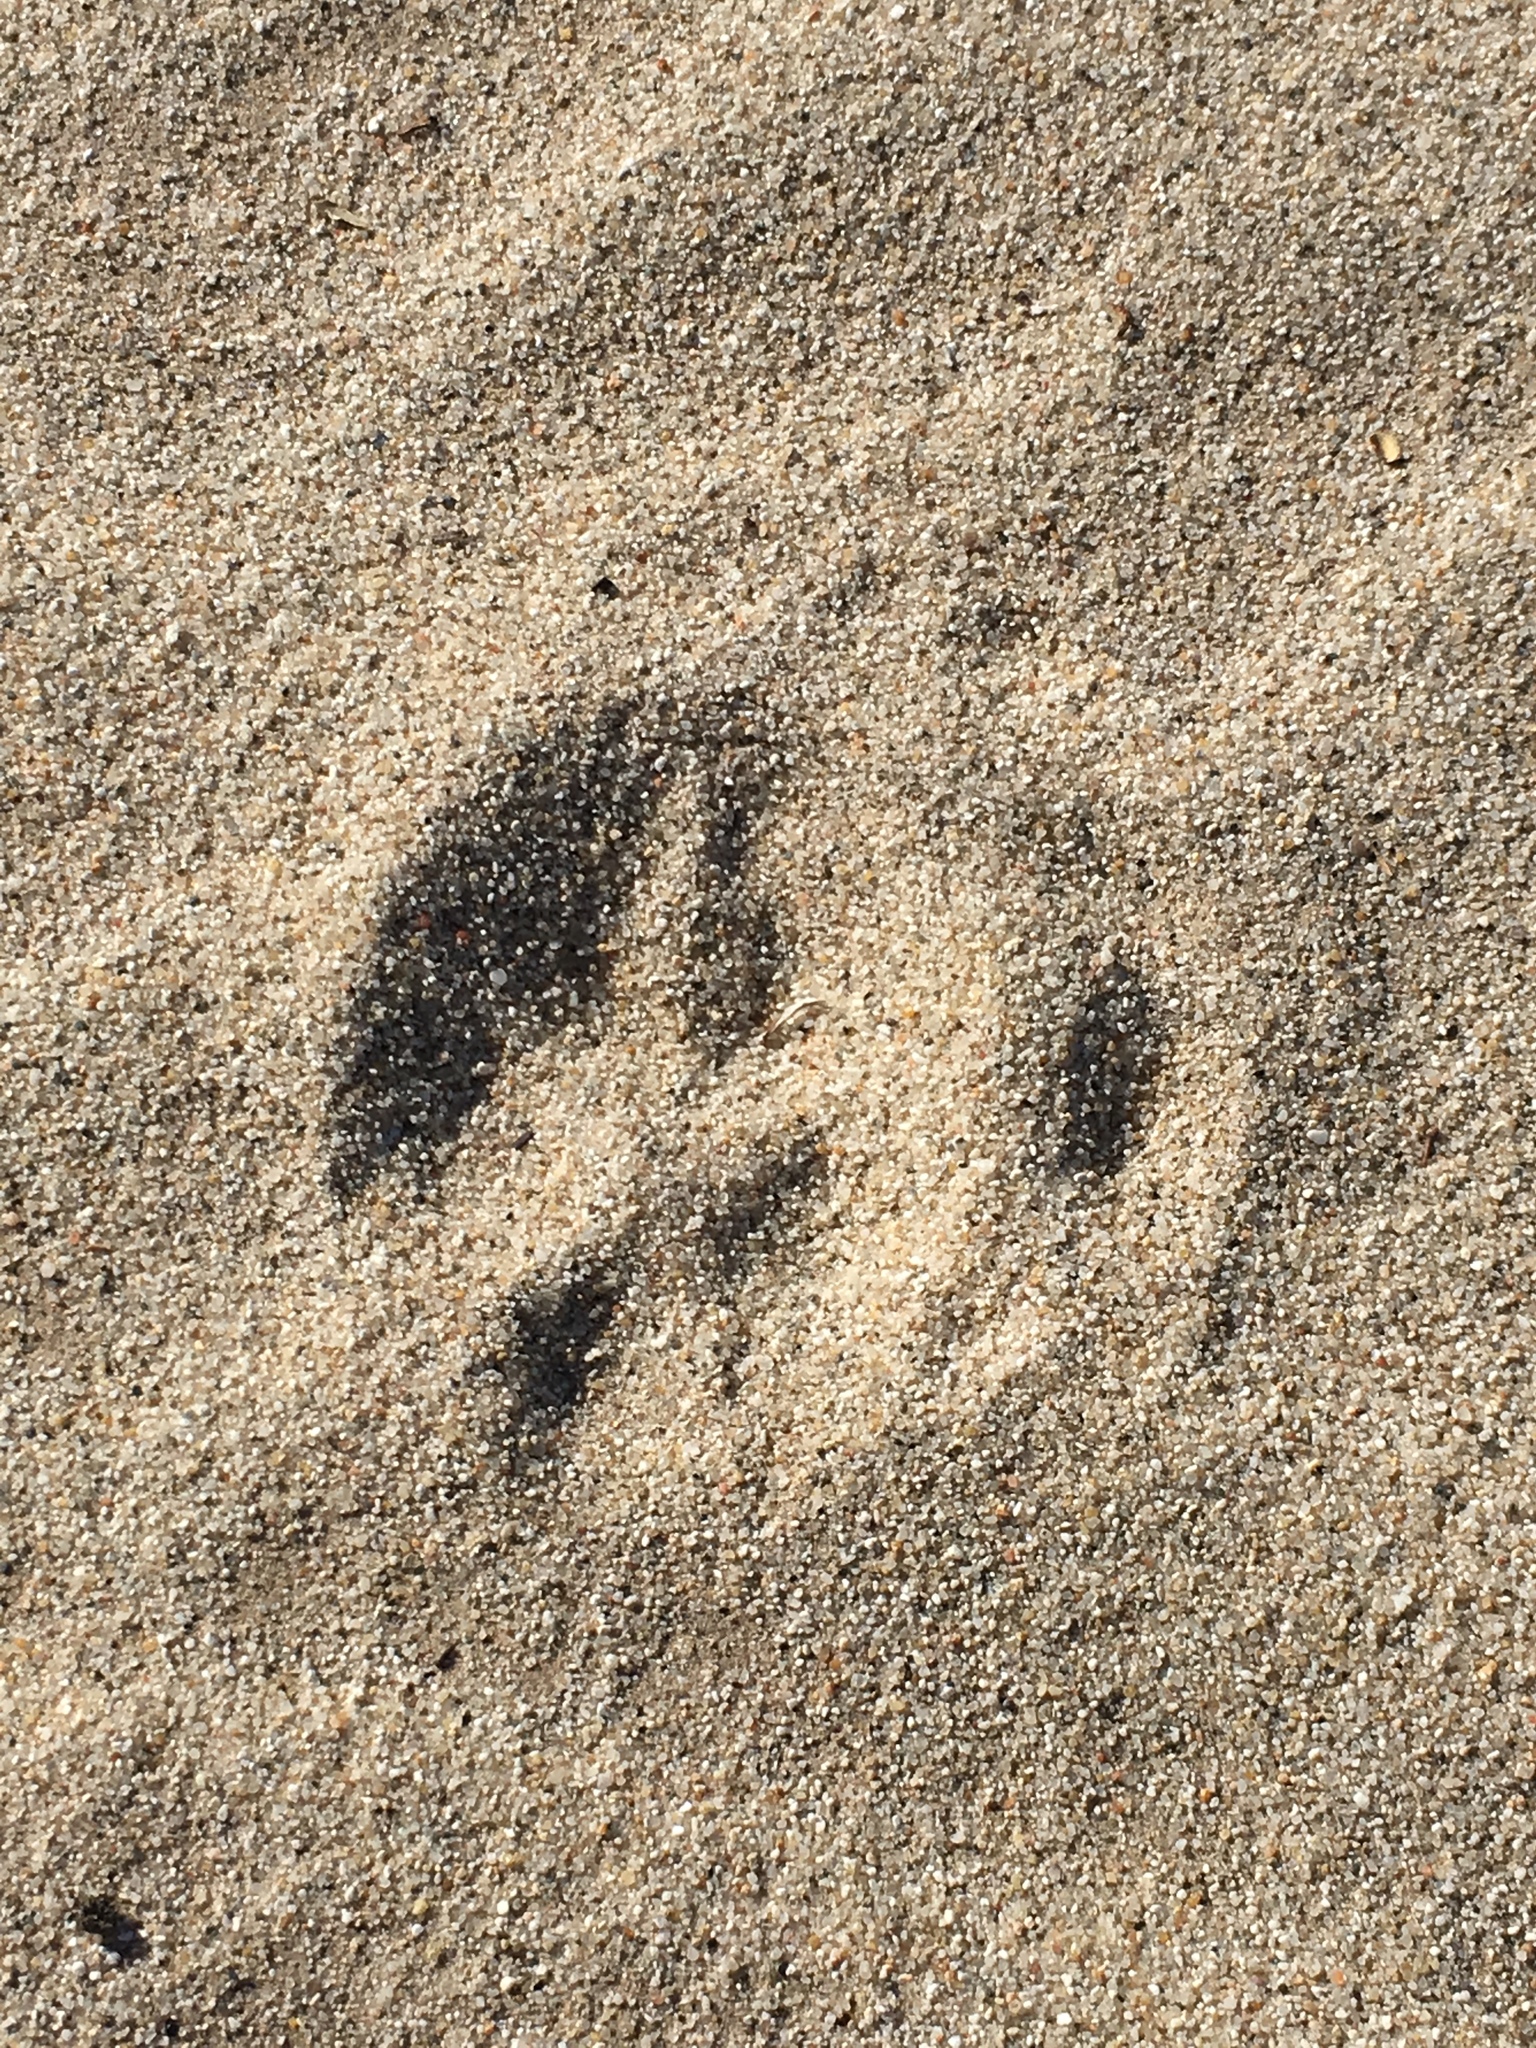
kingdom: Animalia
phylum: Chordata
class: Mammalia
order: Carnivora
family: Canidae
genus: Canis
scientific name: Canis latrans
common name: Coyote
